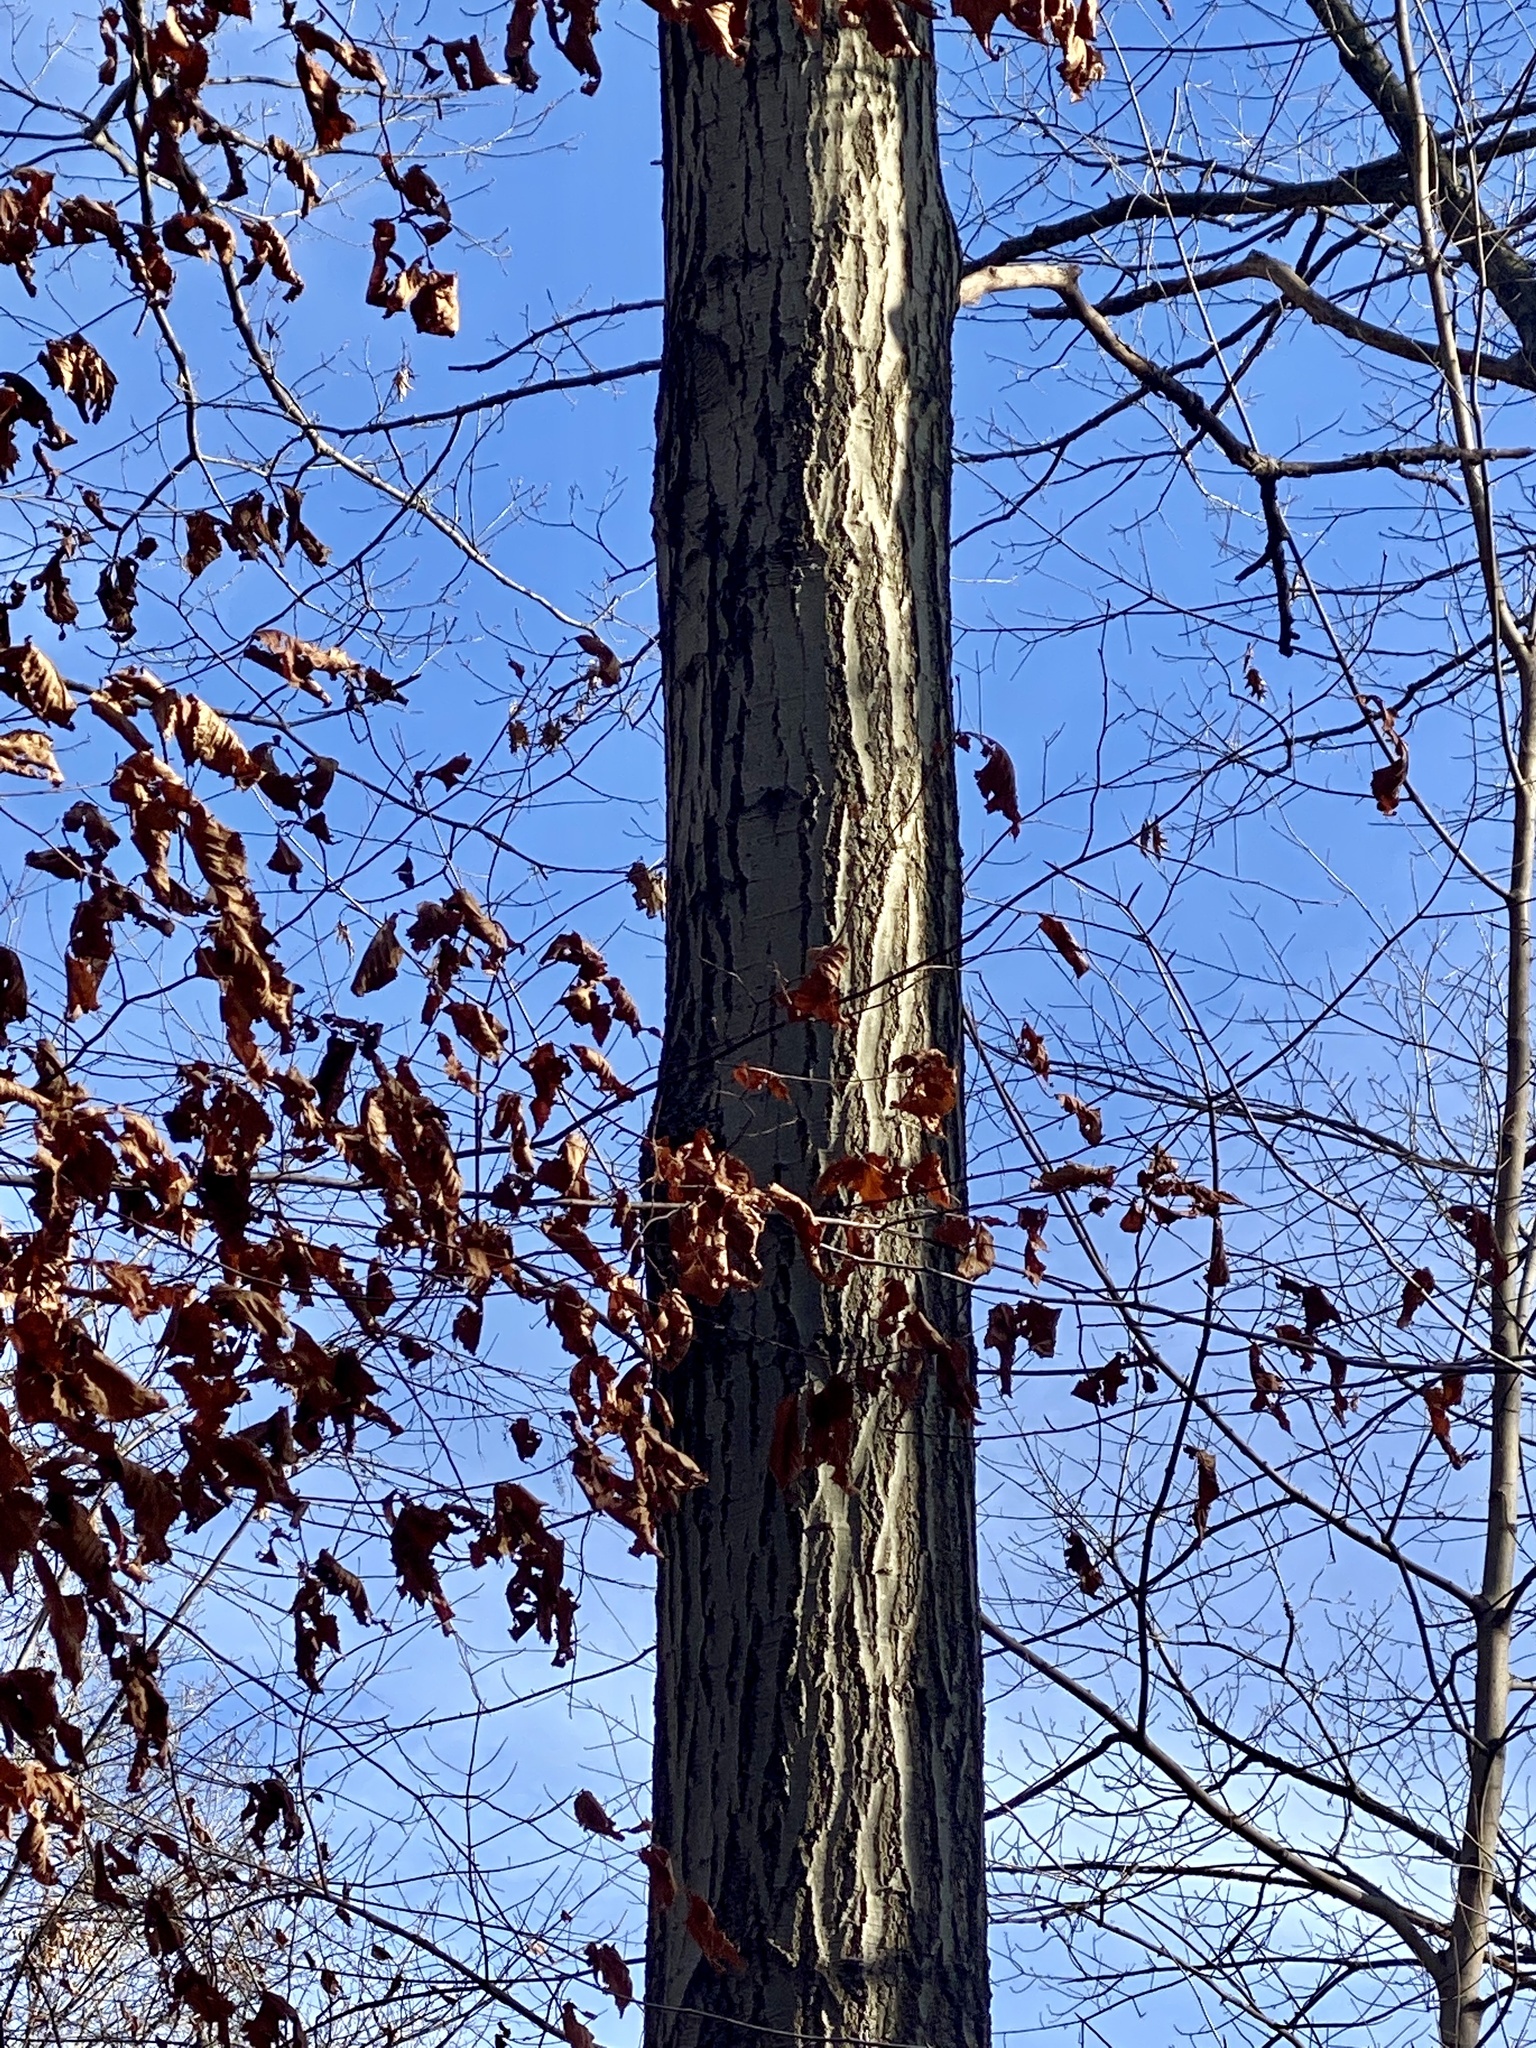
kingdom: Plantae
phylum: Tracheophyta
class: Magnoliopsida
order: Fagales
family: Fagaceae
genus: Quercus
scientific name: Quercus rubra
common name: Red oak
